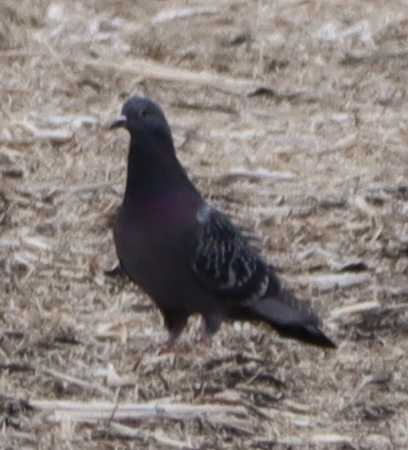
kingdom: Animalia
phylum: Chordata
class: Aves
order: Columbiformes
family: Columbidae
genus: Columba
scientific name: Columba livia
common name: Rock pigeon
